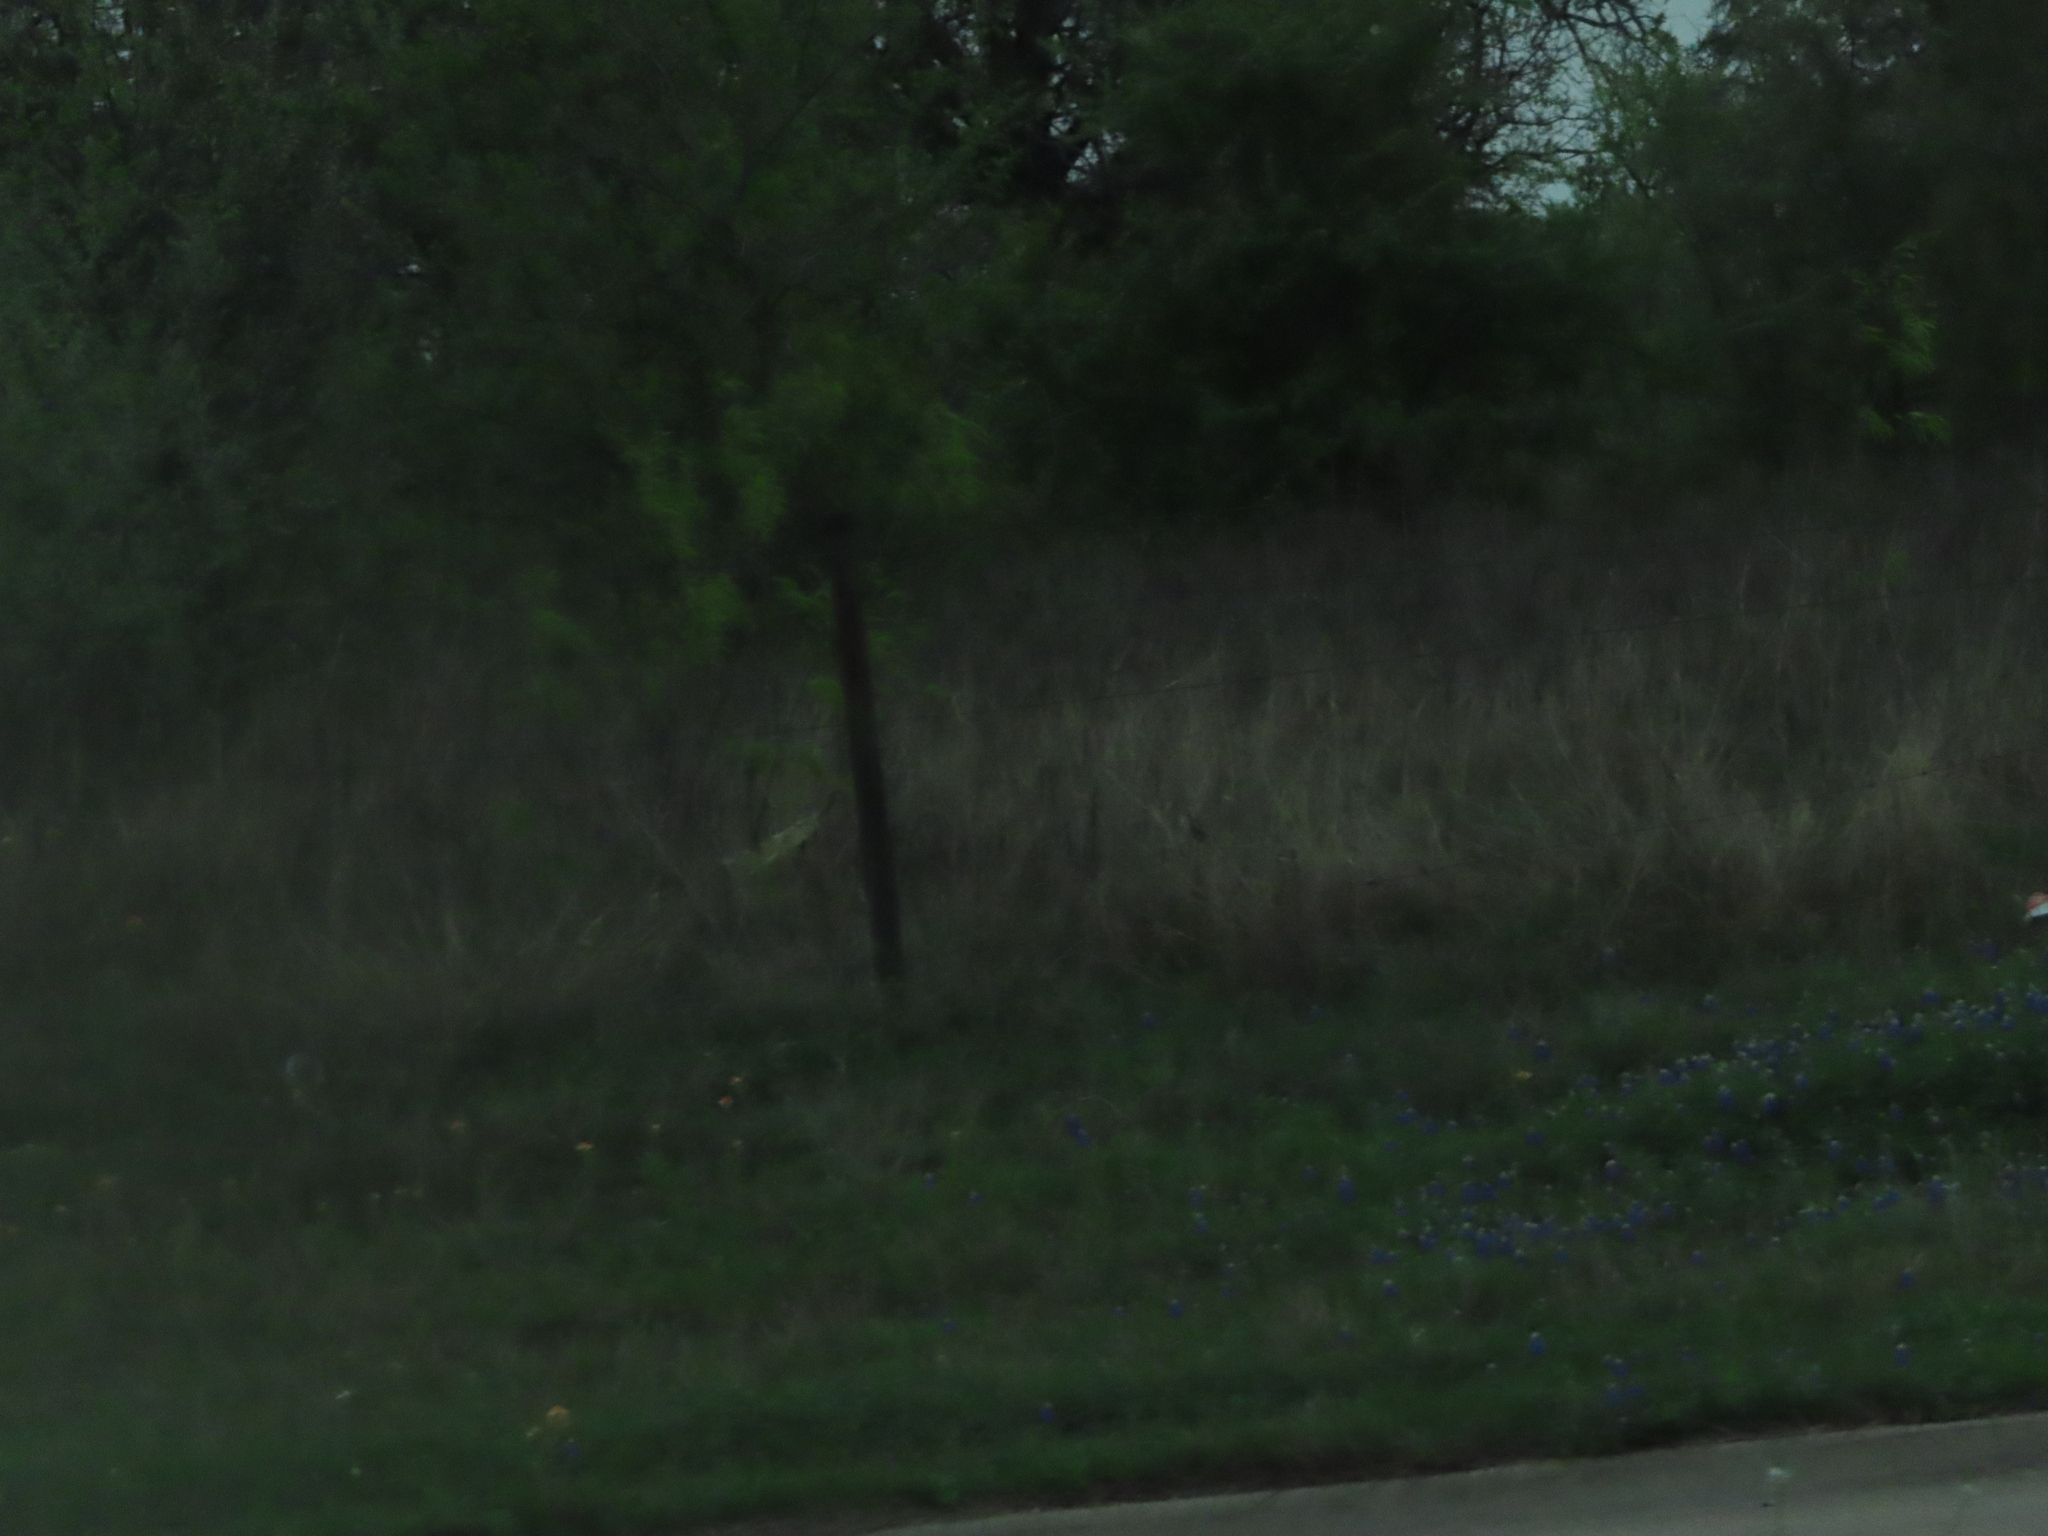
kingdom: Plantae
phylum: Tracheophyta
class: Magnoliopsida
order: Fabales
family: Fabaceae
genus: Lupinus
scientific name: Lupinus texensis
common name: Texas bluebonnet
